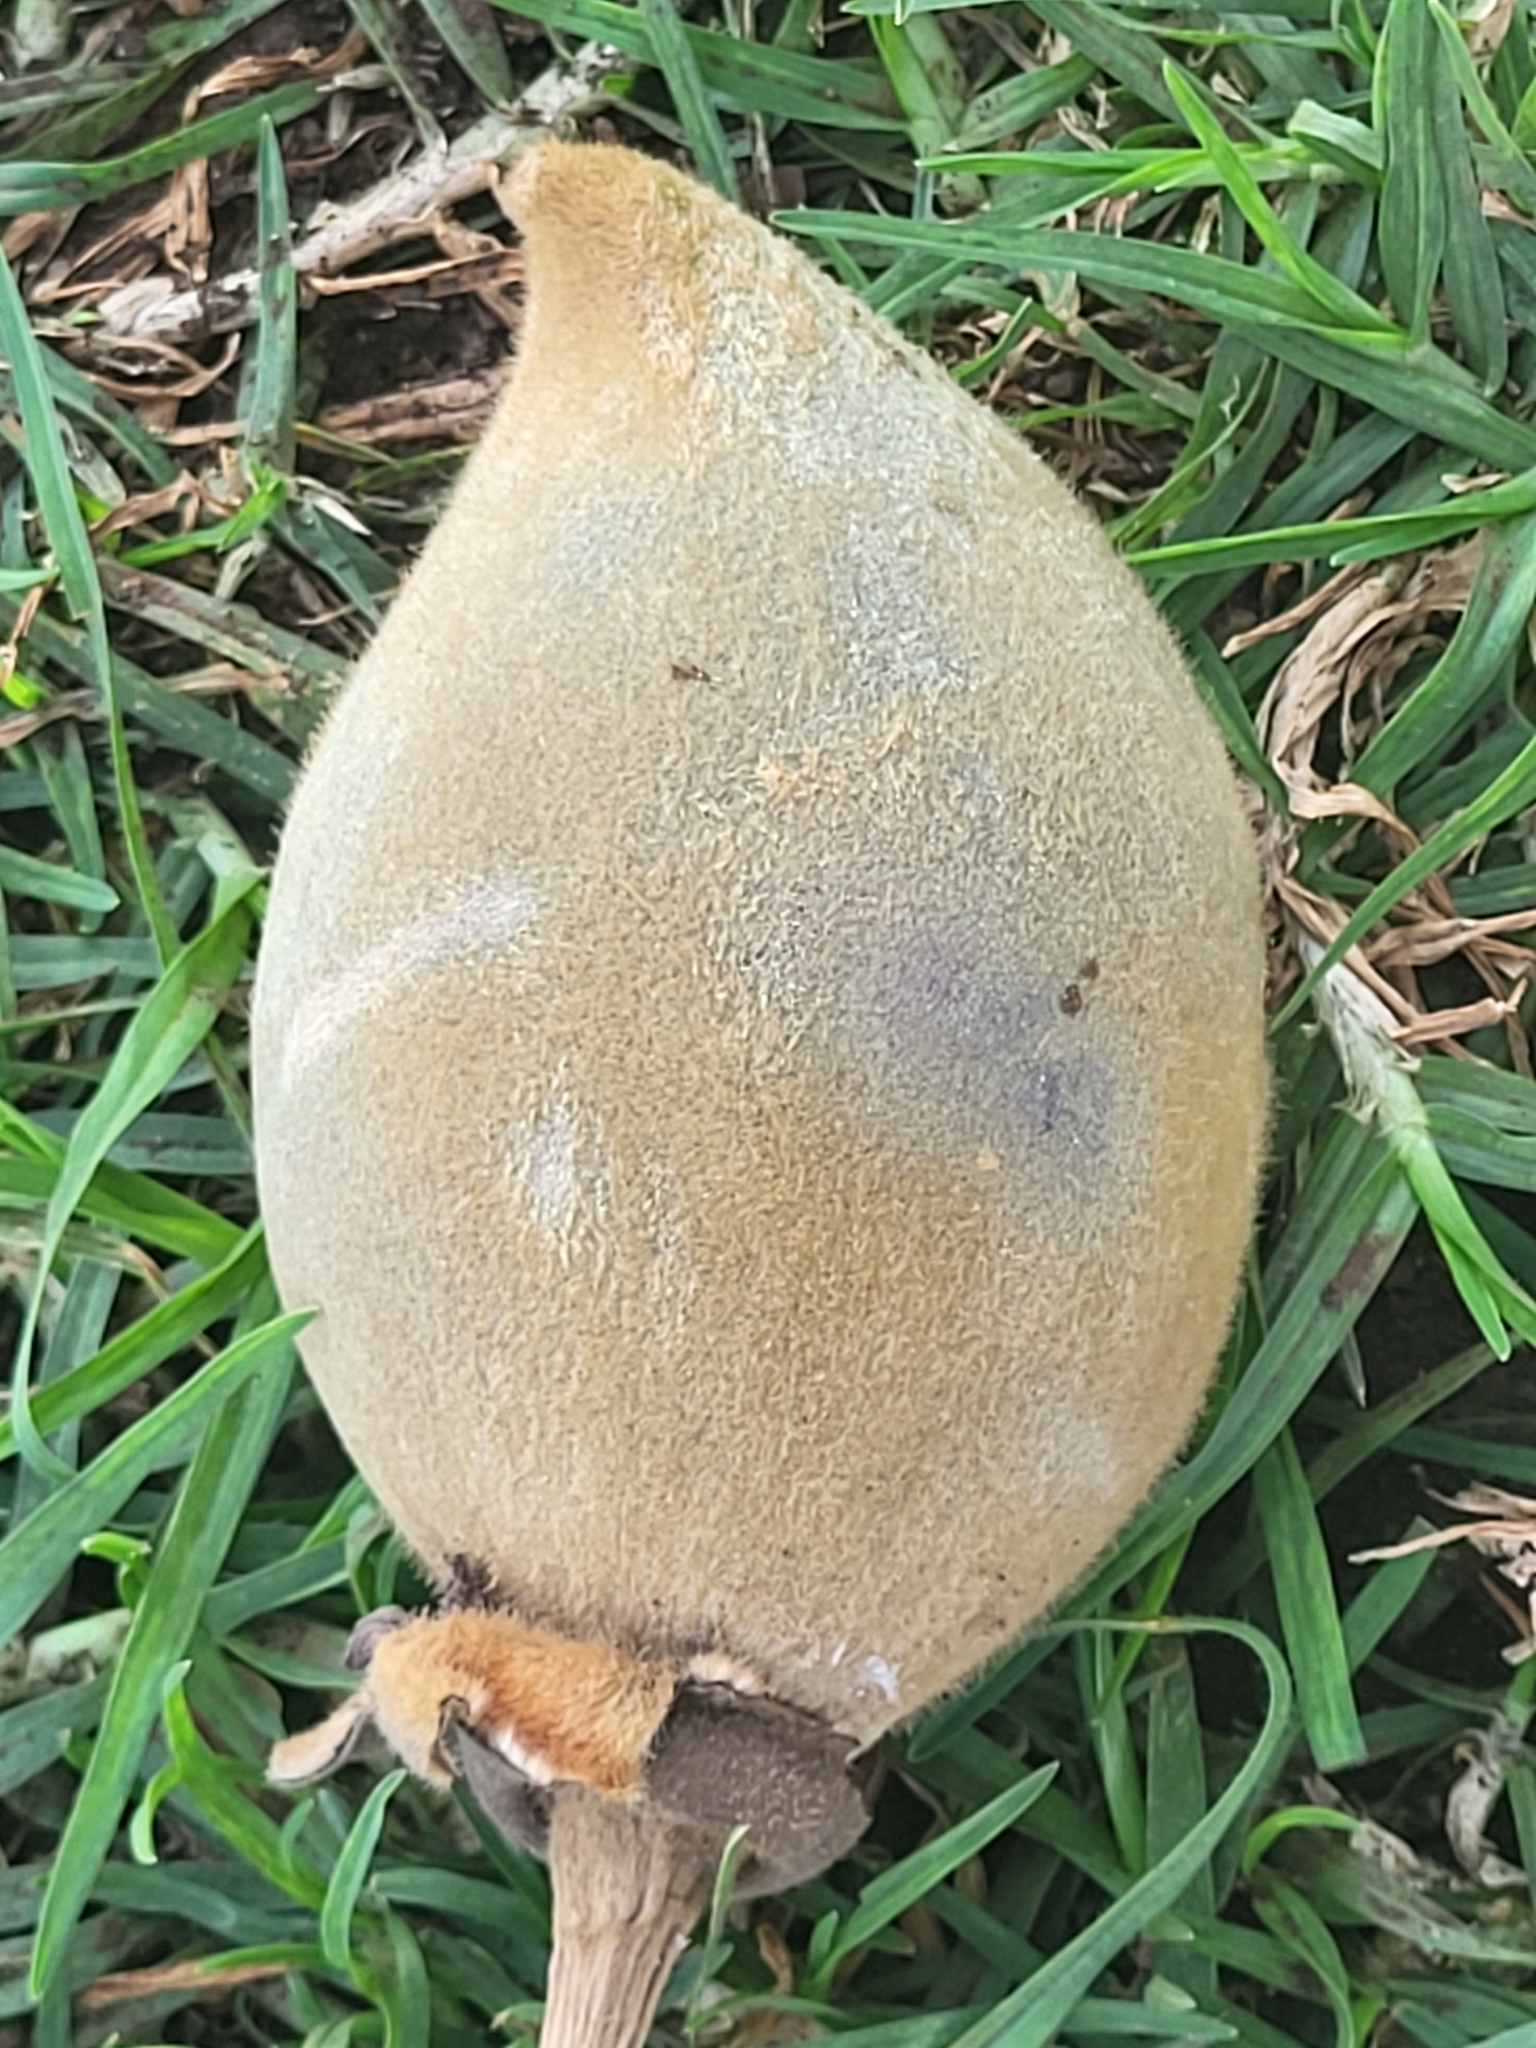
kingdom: Plantae
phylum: Tracheophyta
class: Magnoliopsida
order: Malvales
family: Malvaceae
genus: Adansonia
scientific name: Adansonia digitata
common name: Dead-rat-tree
